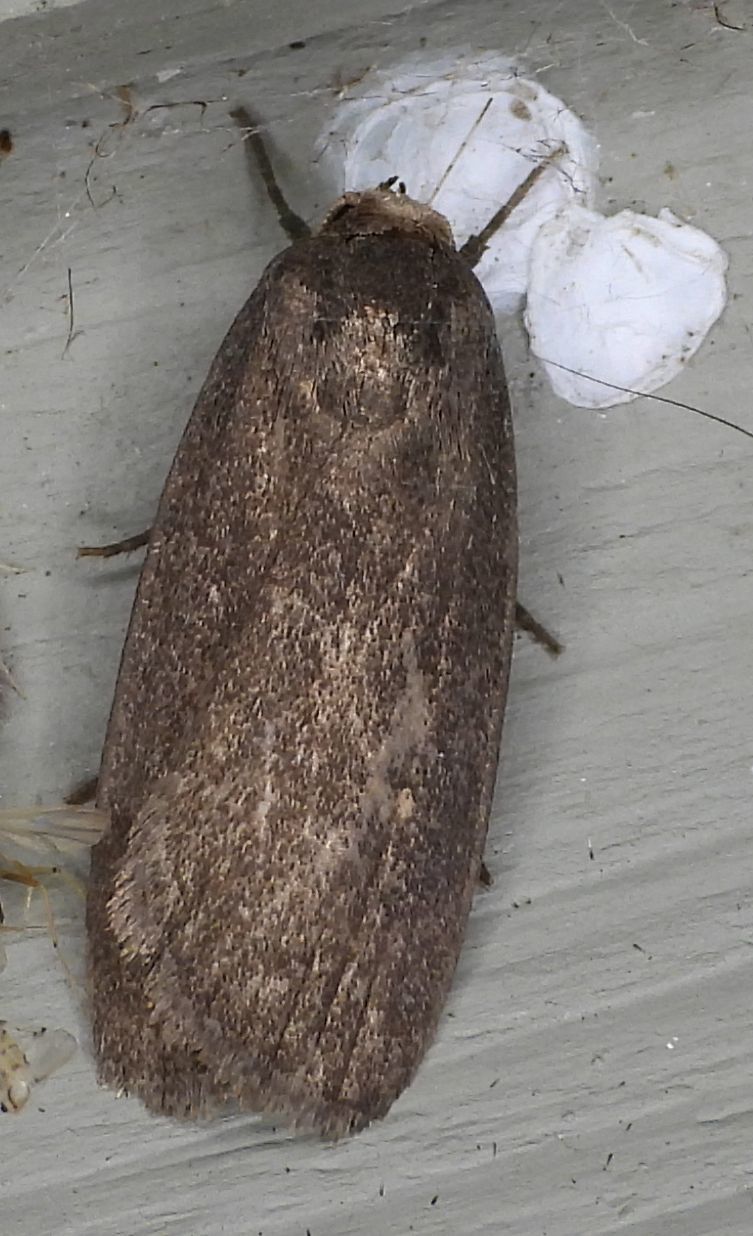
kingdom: Animalia
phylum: Arthropoda
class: Insecta
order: Lepidoptera
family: Noctuidae
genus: Proxenus
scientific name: Proxenus miranda
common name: Miranda moth
